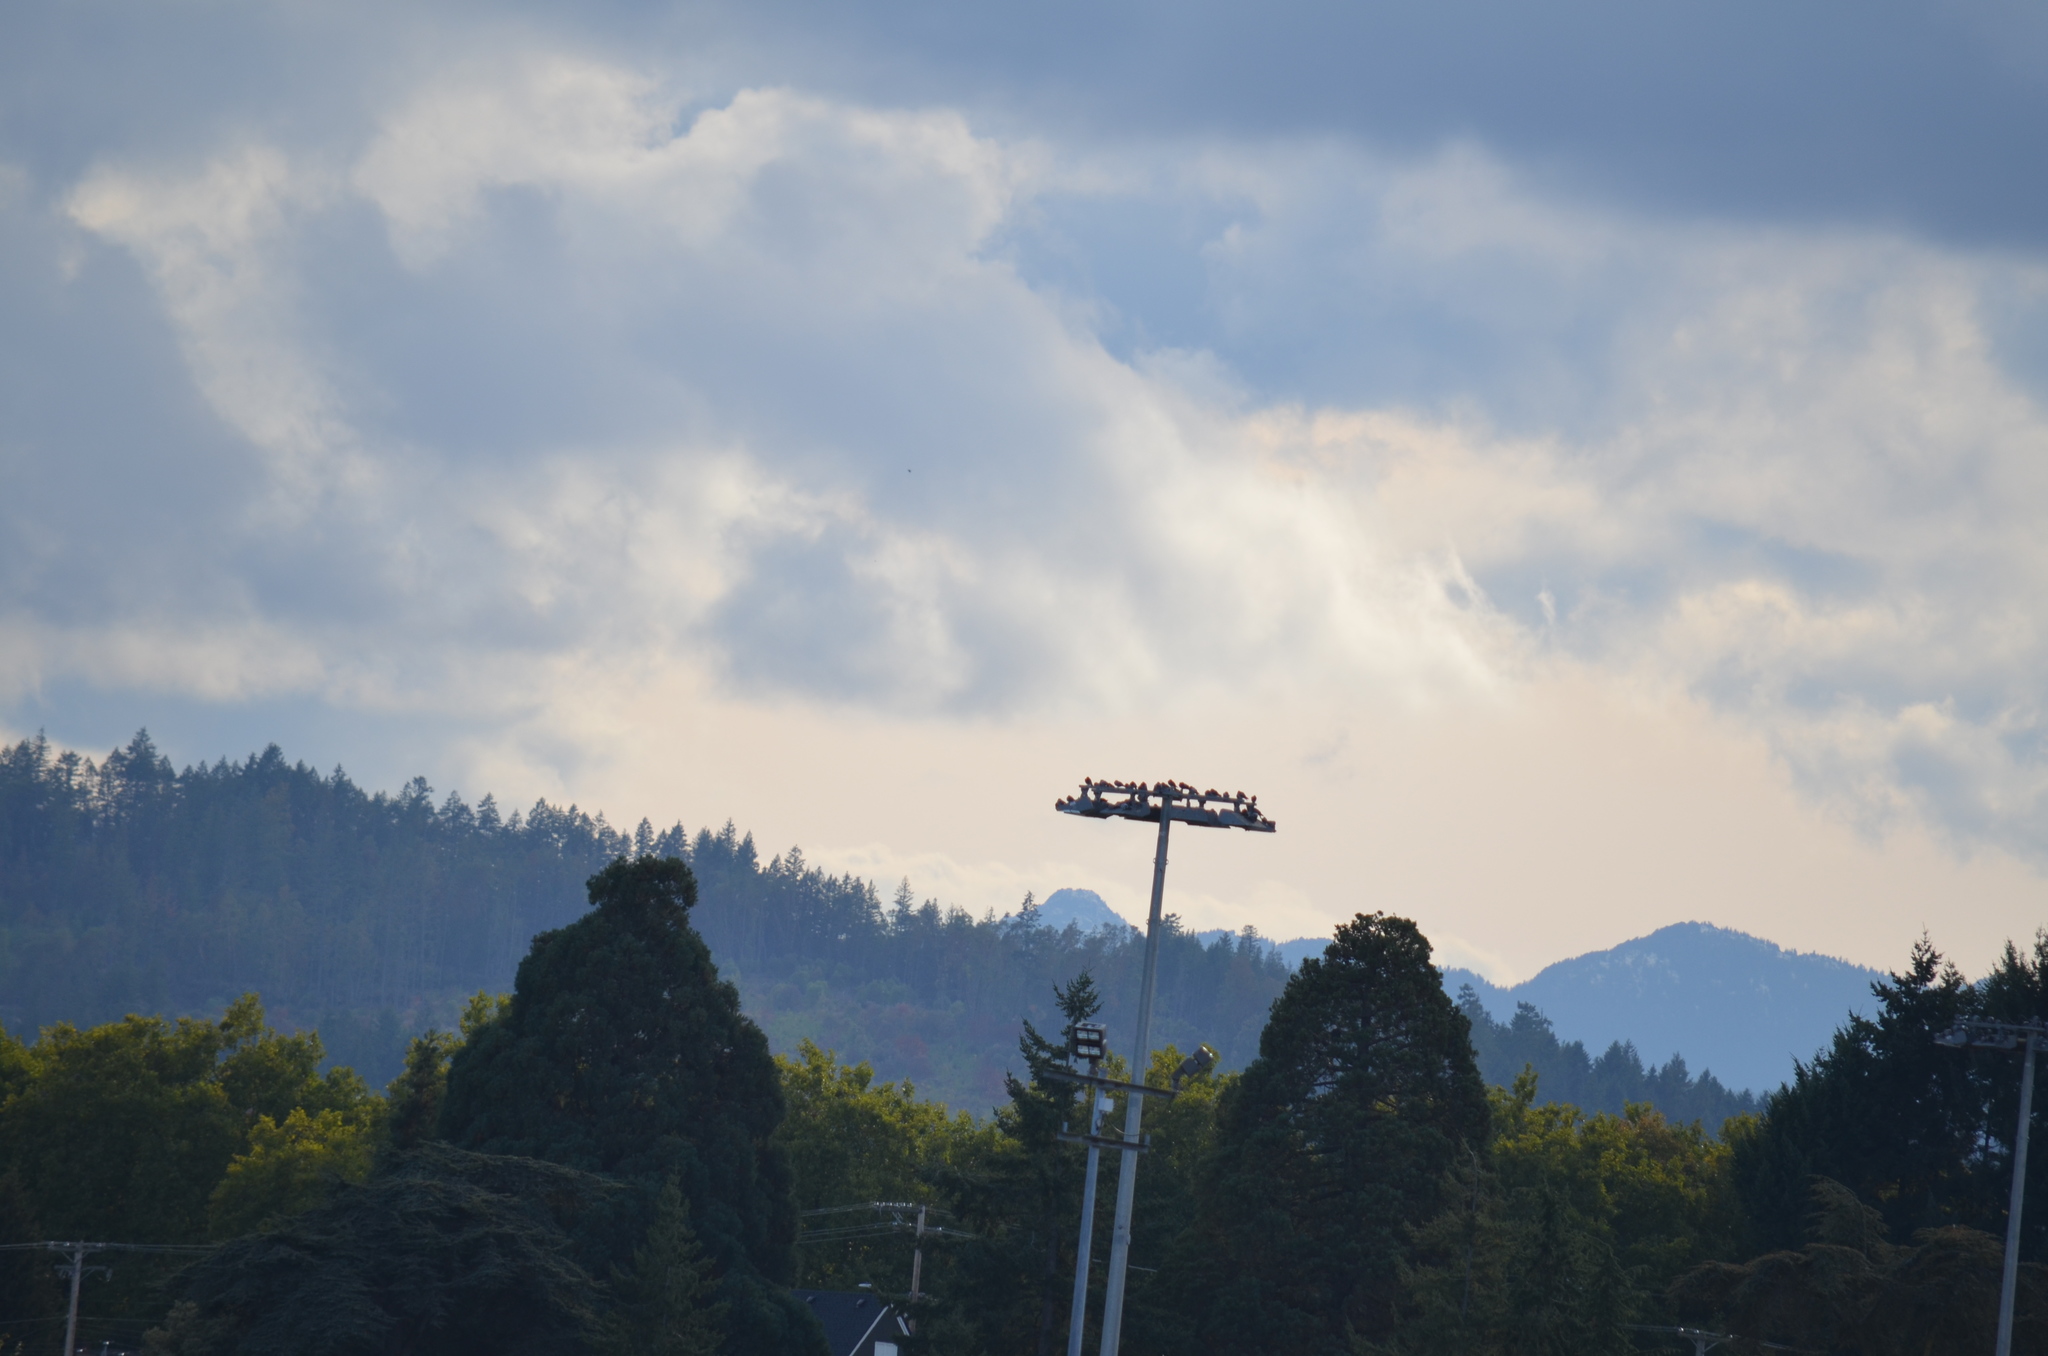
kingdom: Animalia
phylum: Chordata
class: Aves
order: Columbiformes
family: Columbidae
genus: Columba
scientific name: Columba livia
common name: Rock pigeon
